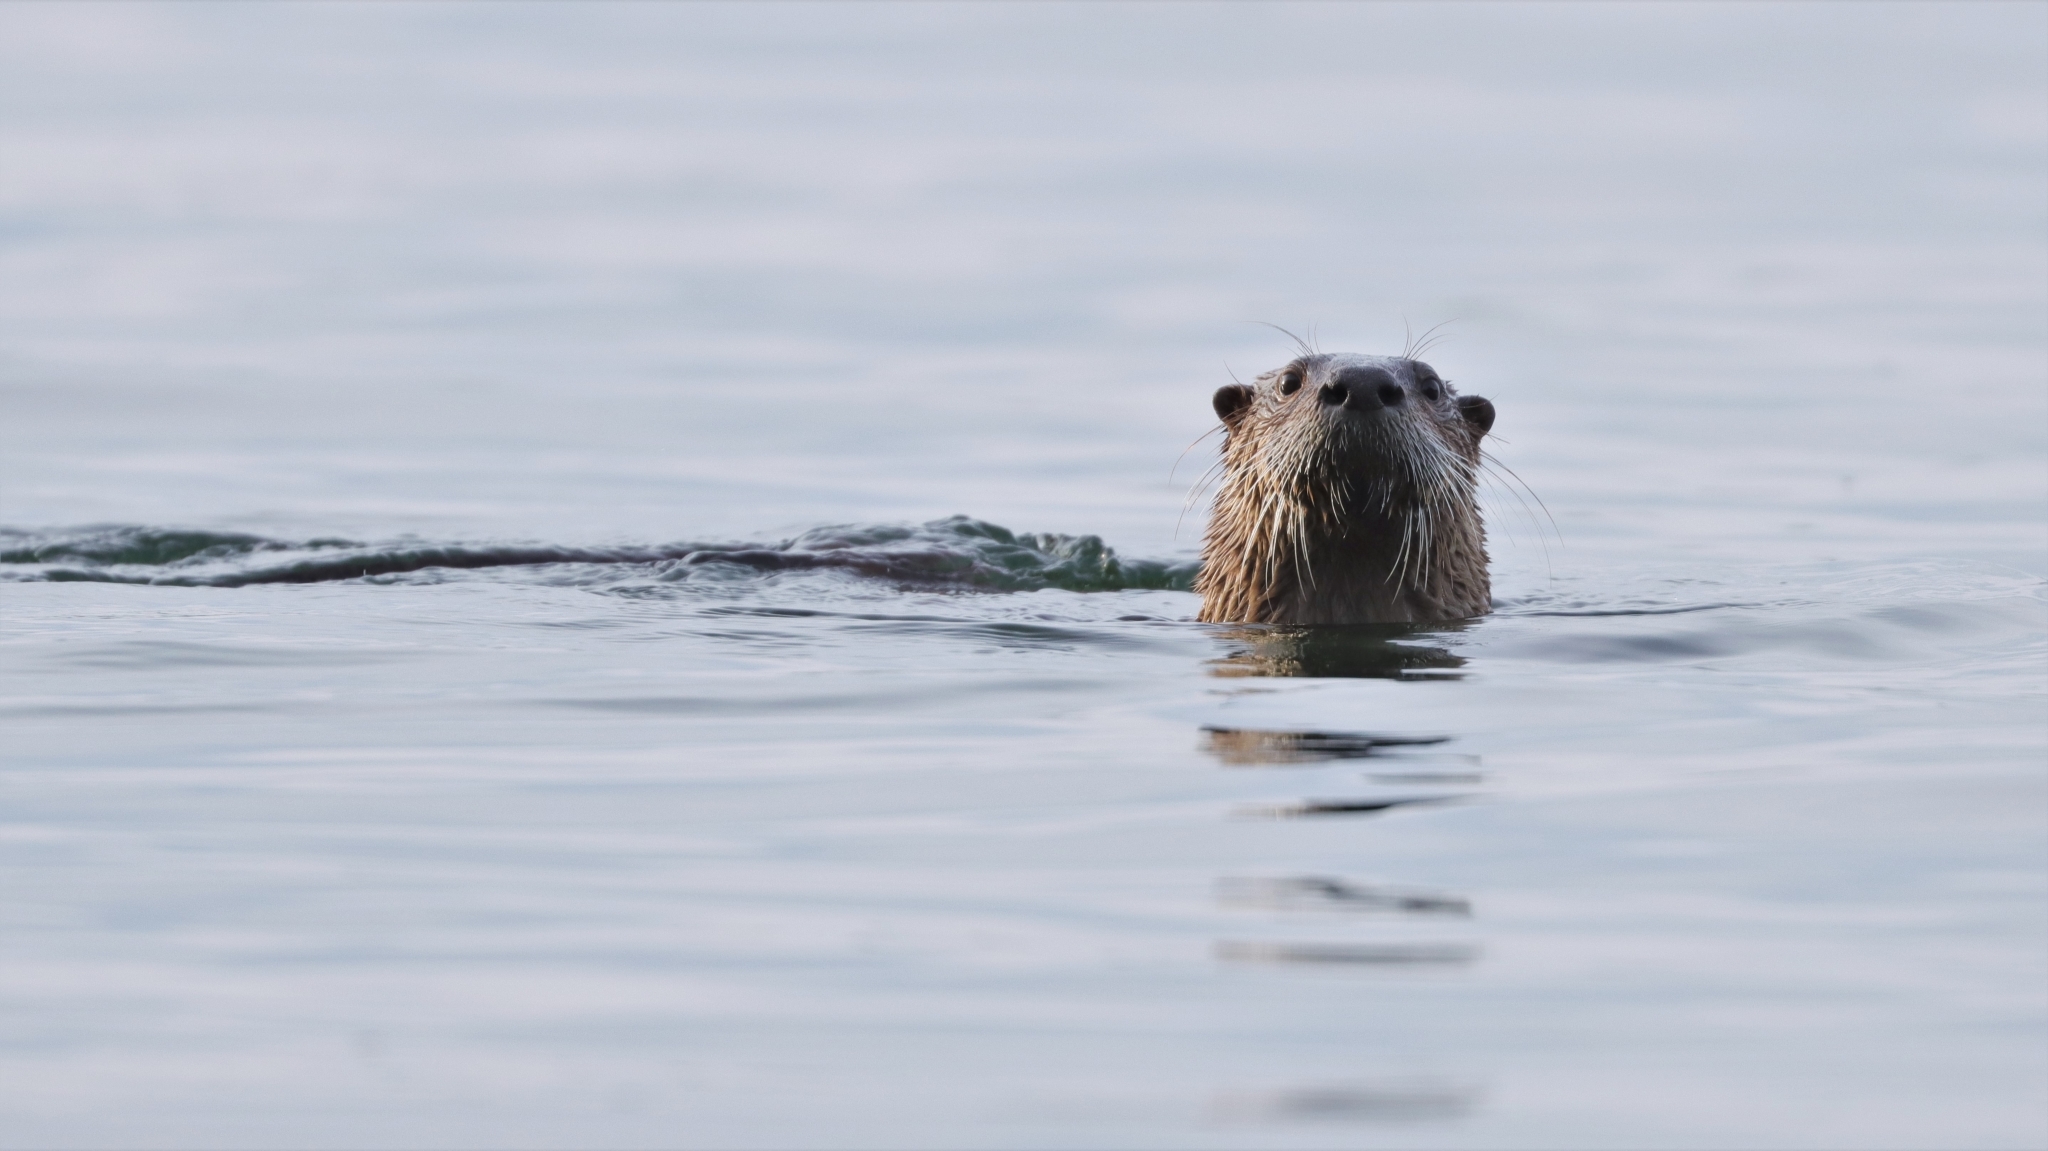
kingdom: Animalia
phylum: Chordata
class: Mammalia
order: Carnivora
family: Mustelidae
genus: Lontra
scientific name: Lontra canadensis
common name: North american river otter
